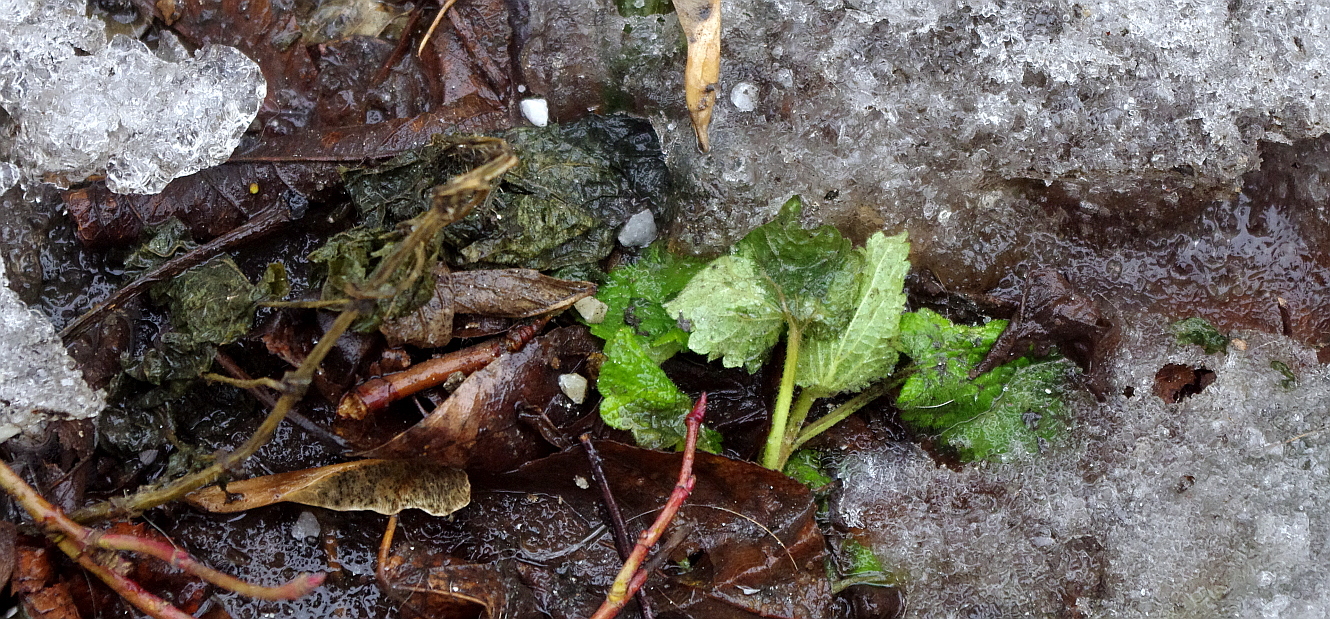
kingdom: Plantae
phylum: Tracheophyta
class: Magnoliopsida
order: Lamiales
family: Lamiaceae
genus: Lamium
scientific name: Lamium album
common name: White dead-nettle
